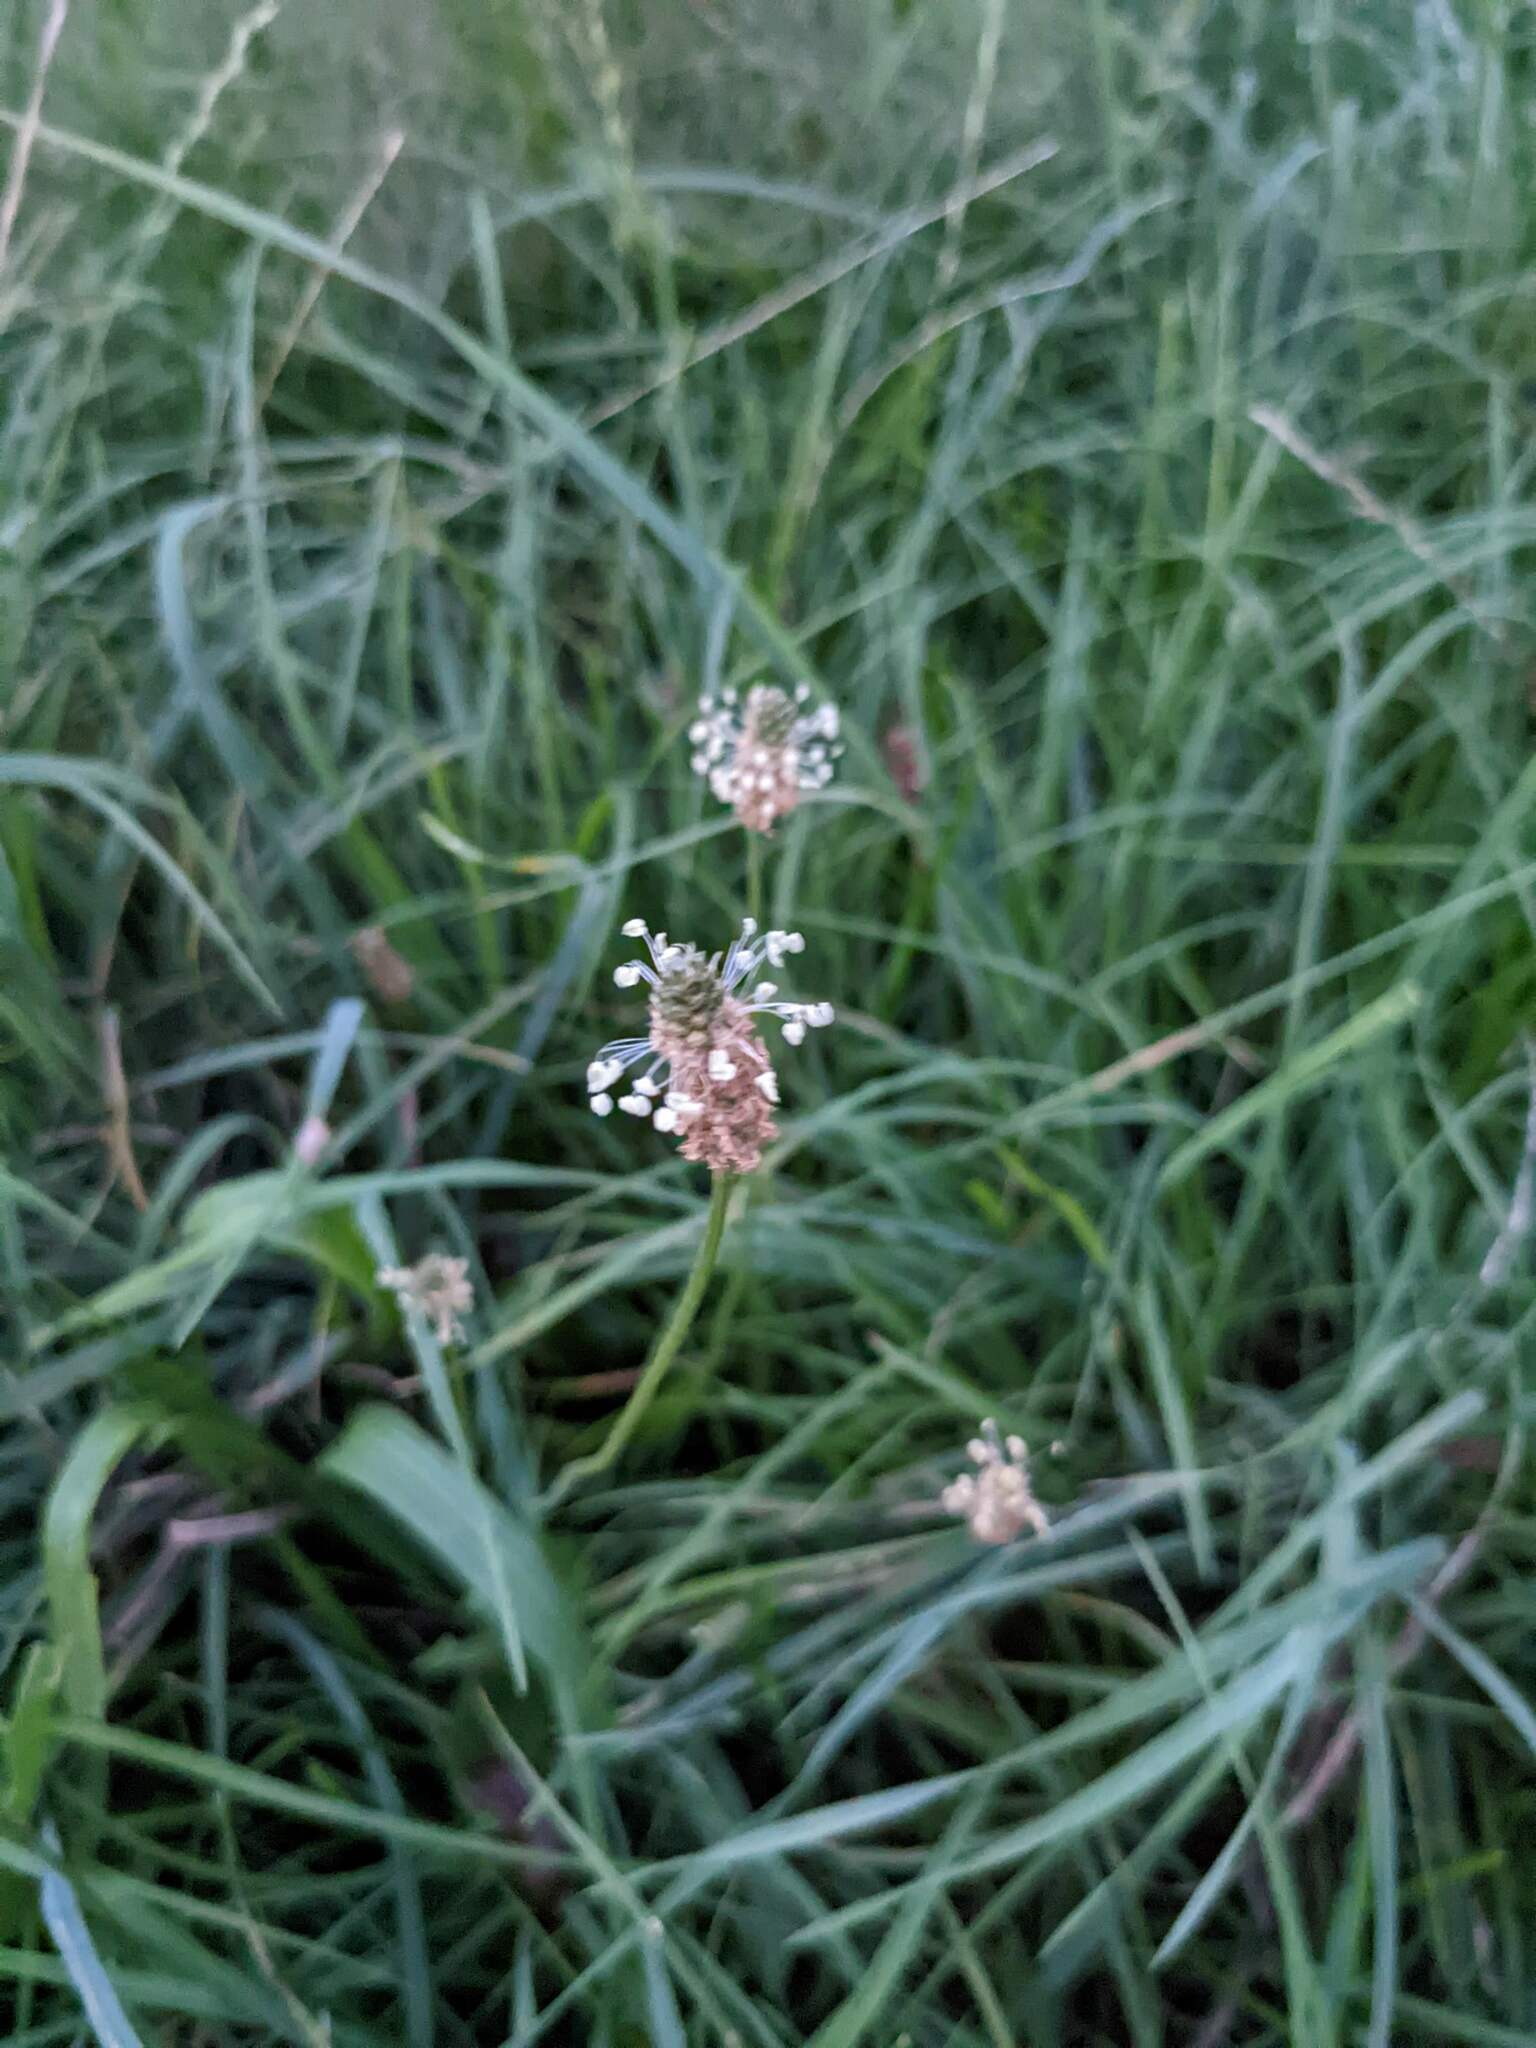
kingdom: Plantae
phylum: Tracheophyta
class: Magnoliopsida
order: Lamiales
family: Plantaginaceae
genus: Plantago
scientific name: Plantago lanceolata
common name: Ribwort plantain
